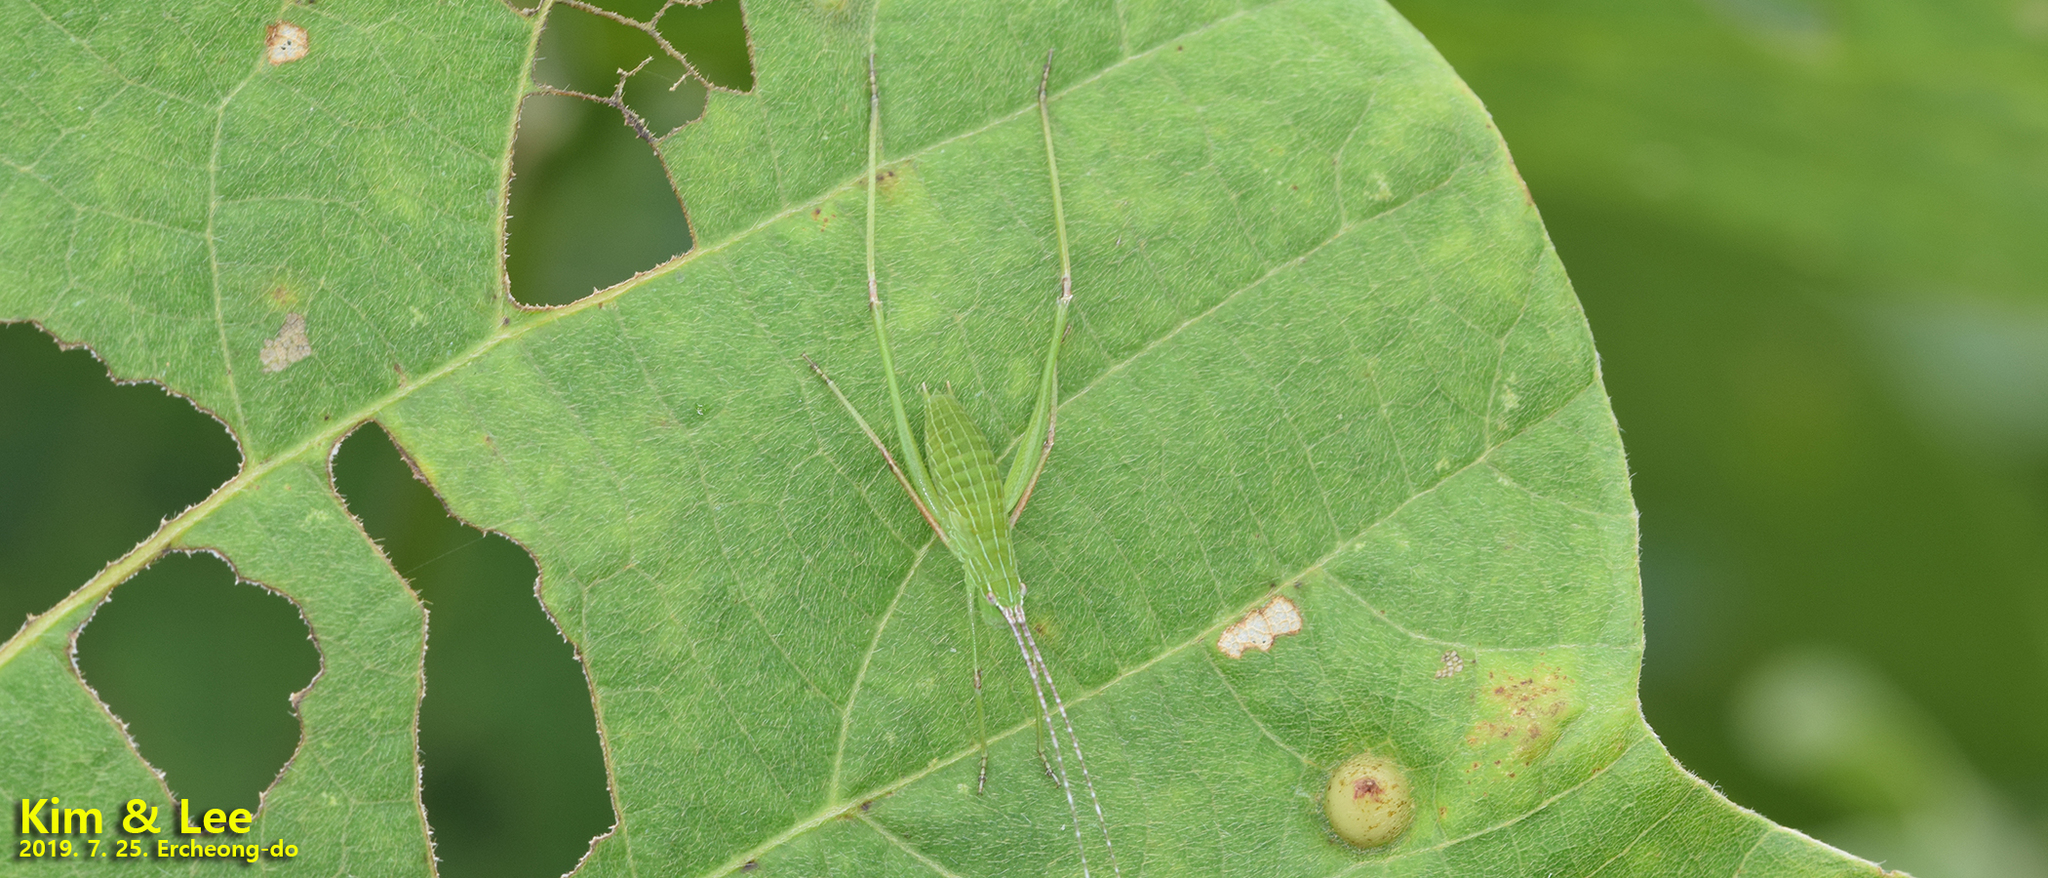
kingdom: Animalia
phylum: Arthropoda
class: Insecta
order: Orthoptera
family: Tettigoniidae
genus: Ducetia
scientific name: Ducetia japonica
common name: Pacific ducetia
